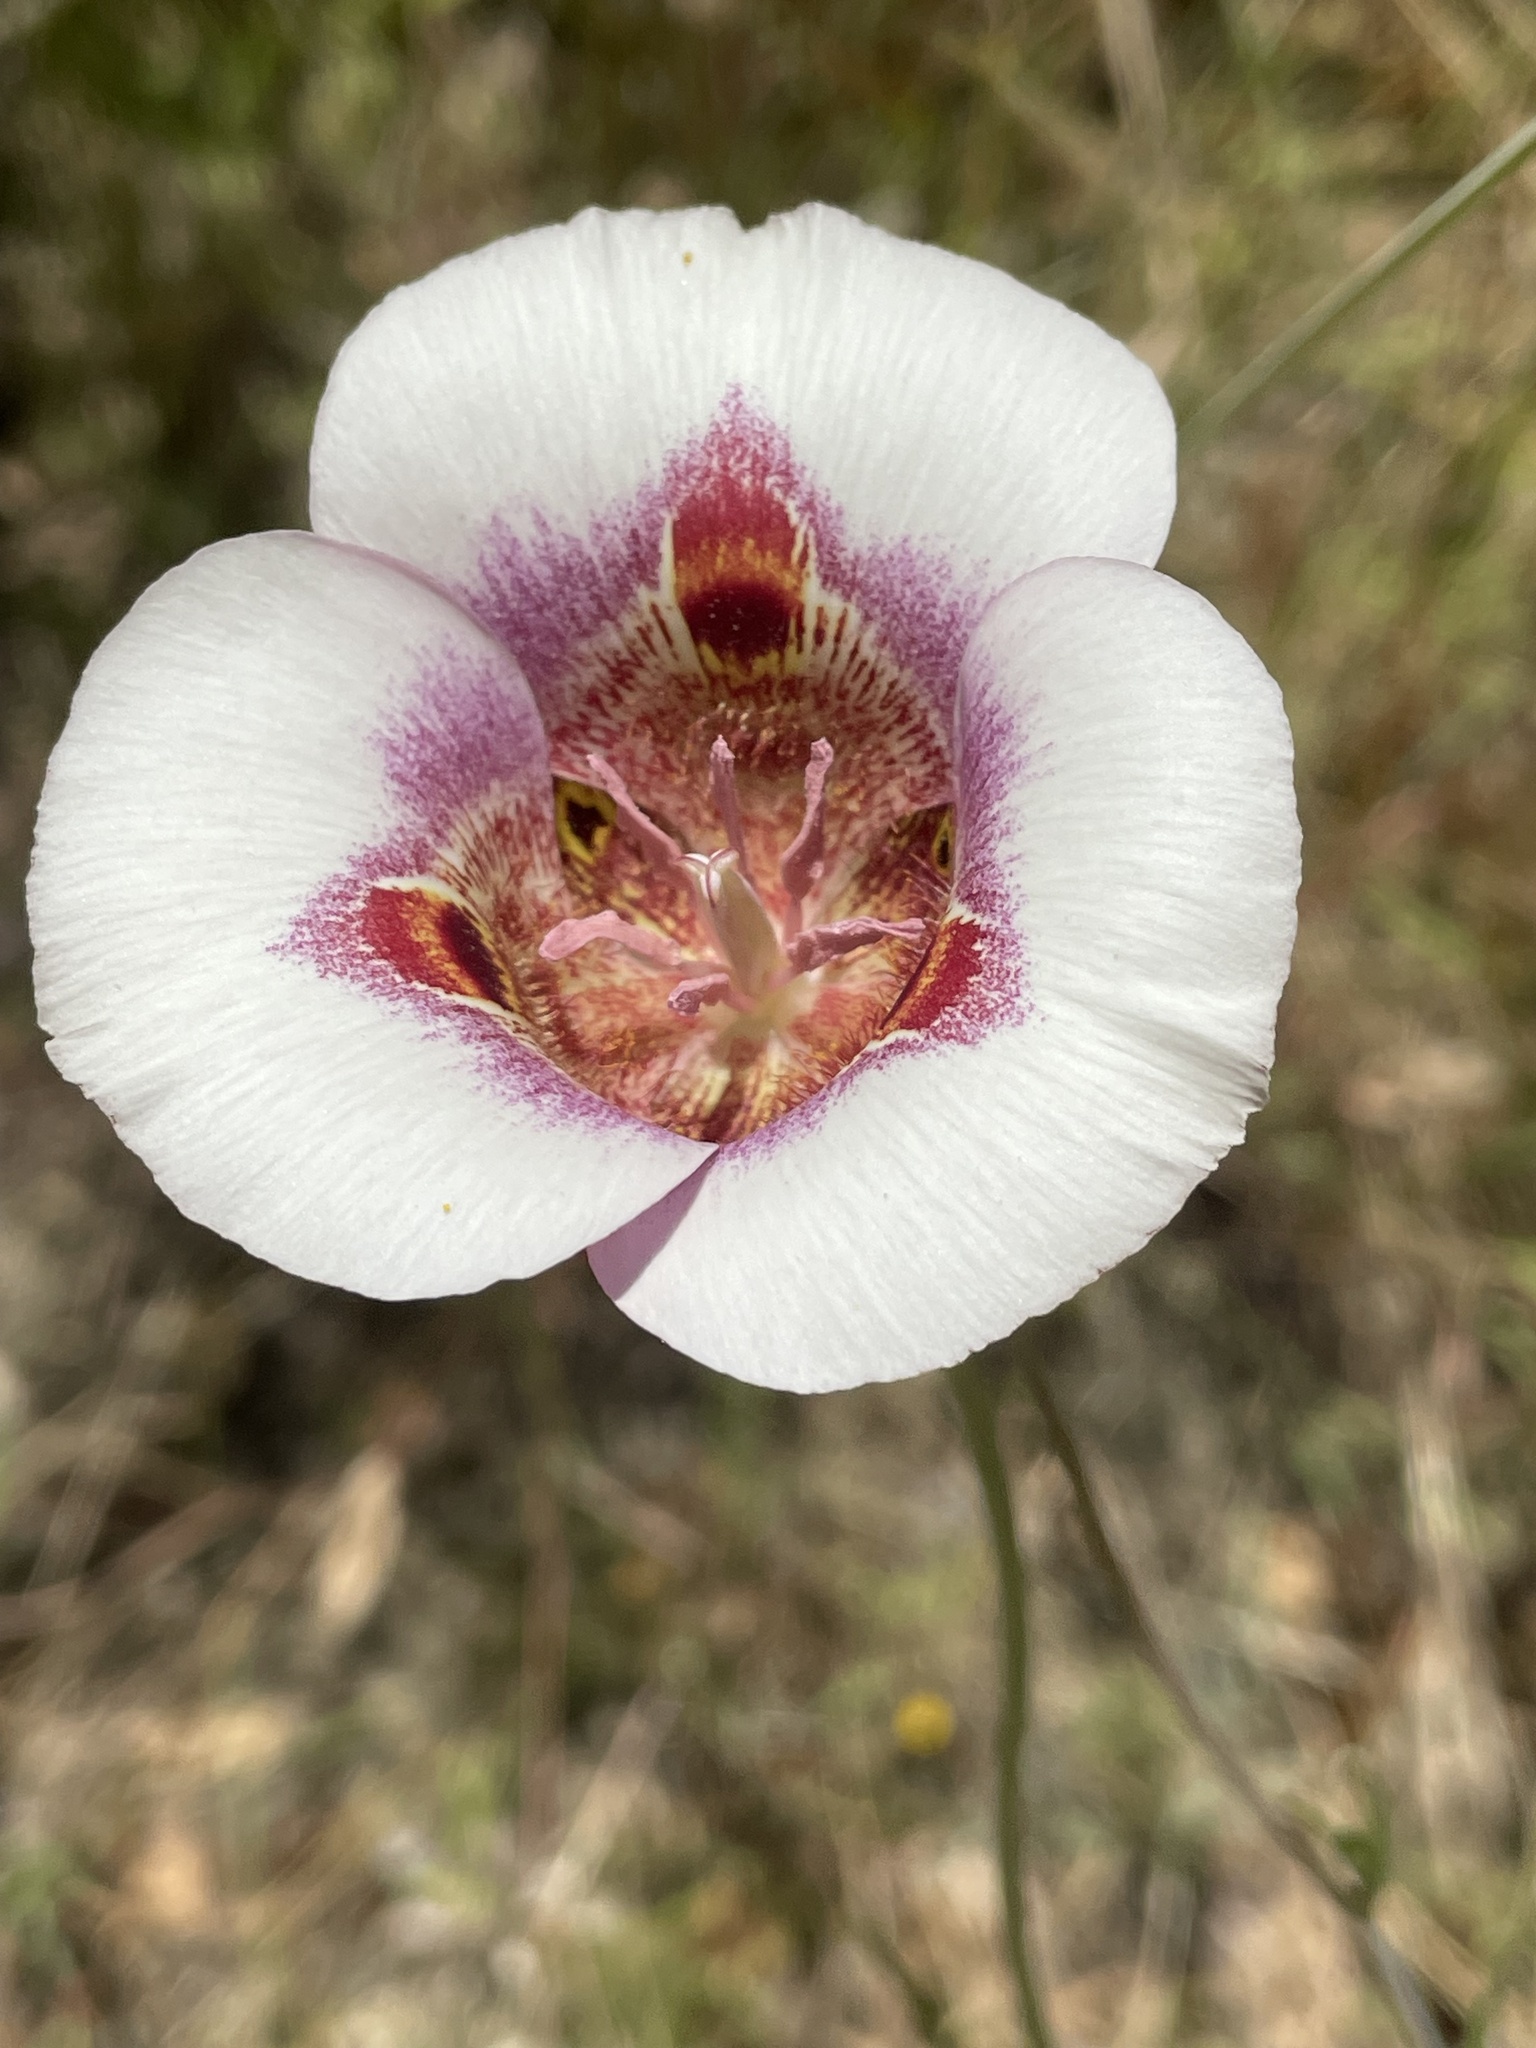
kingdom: Plantae
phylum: Tracheophyta
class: Liliopsida
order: Liliales
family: Liliaceae
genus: Calochortus
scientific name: Calochortus argillosus
